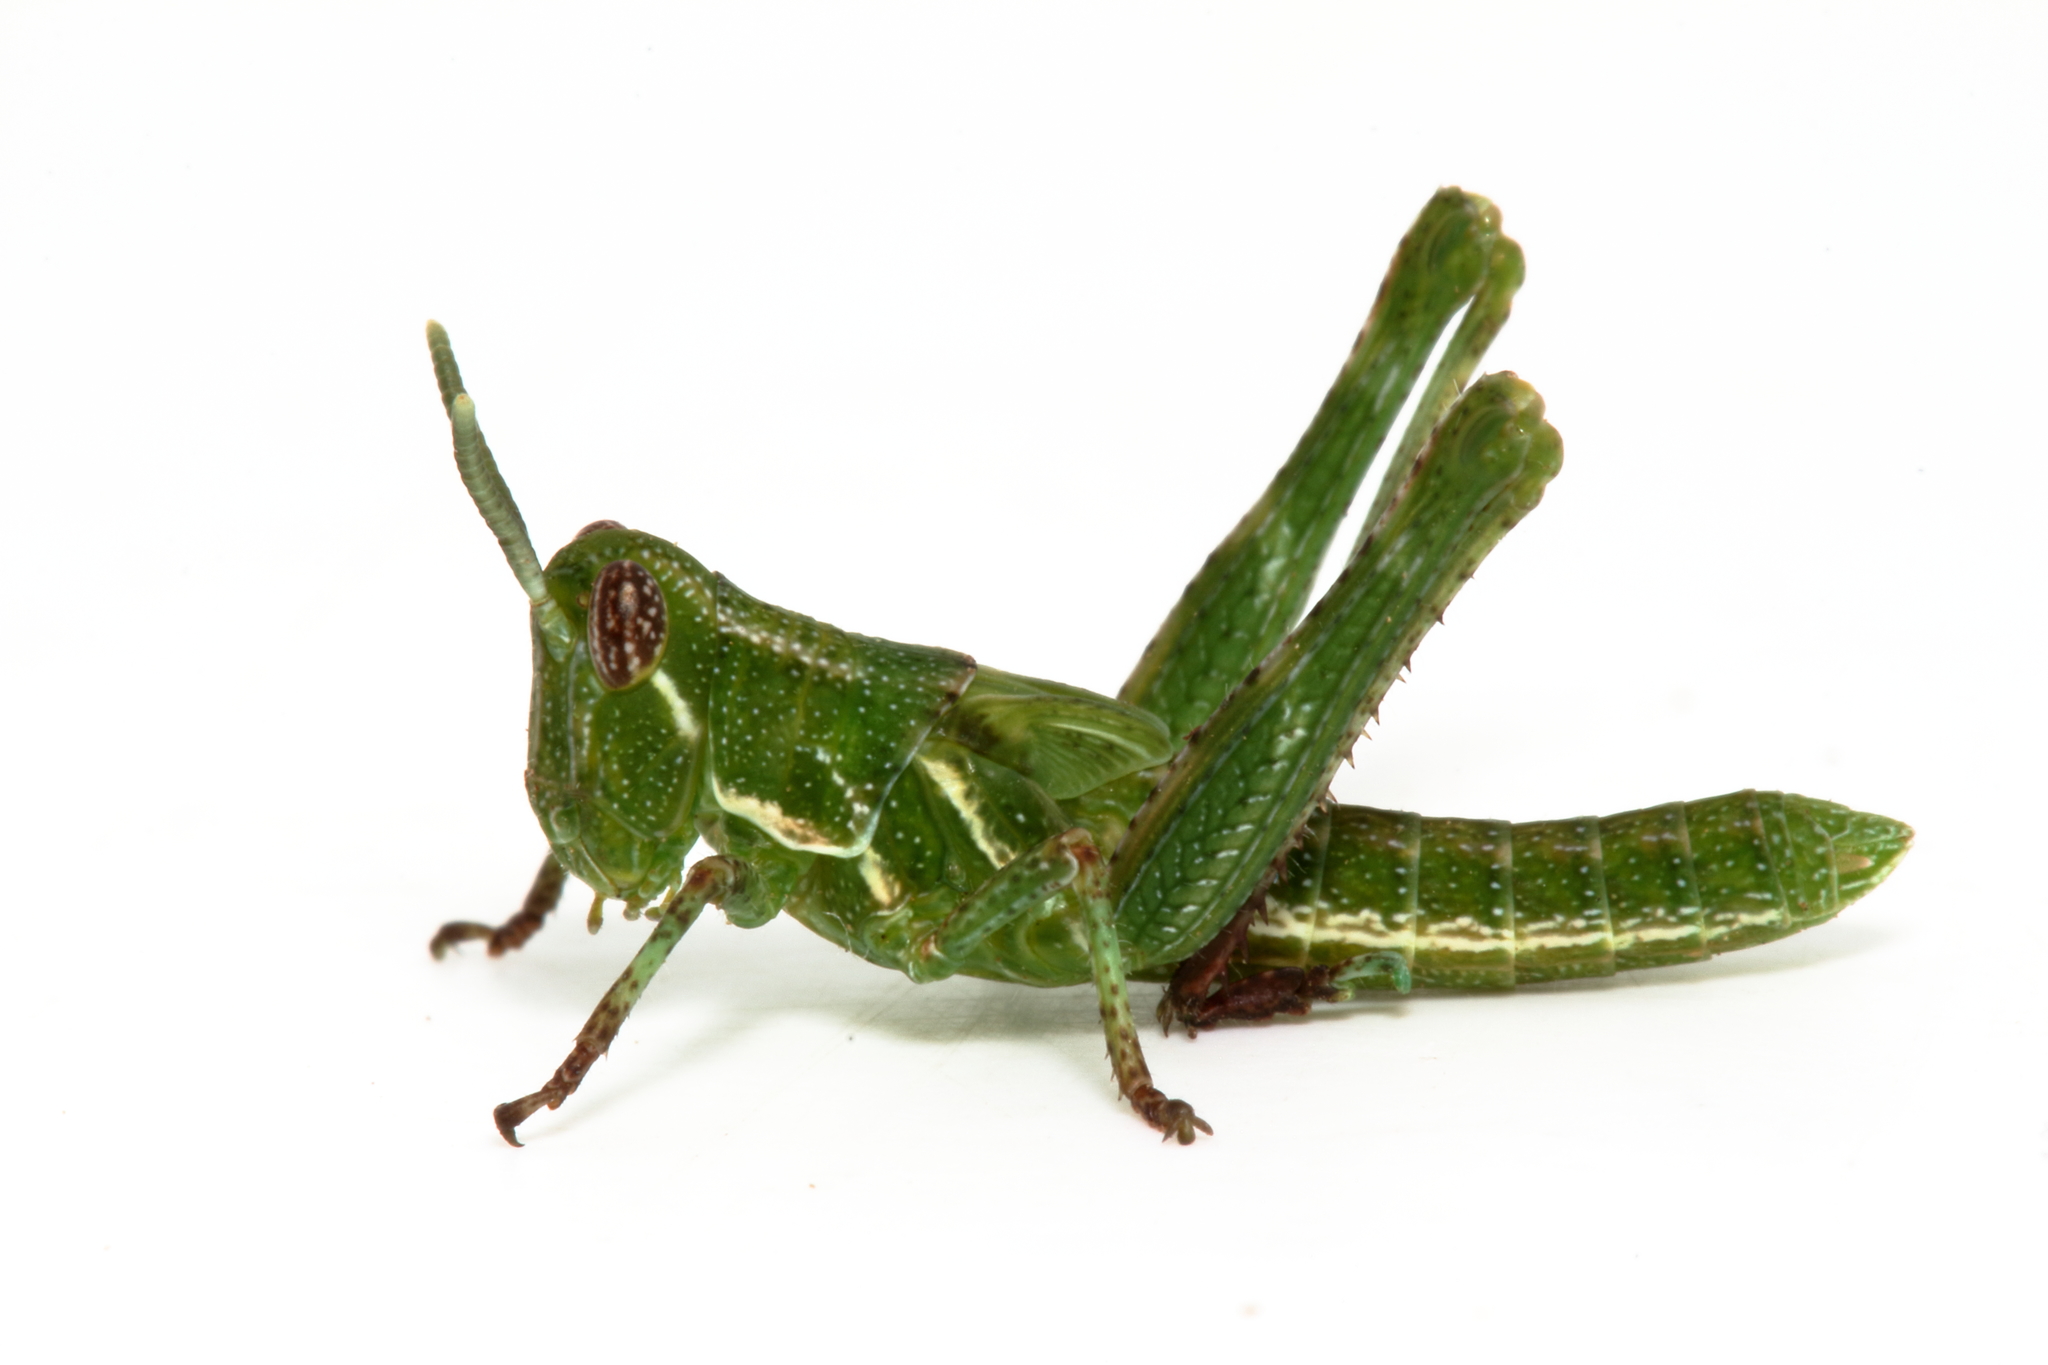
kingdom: Animalia
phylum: Arthropoda
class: Insecta
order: Orthoptera
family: Acrididae
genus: Histrioacrida
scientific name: Histrioacrida roseipennis
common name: Halgania grasshopper
